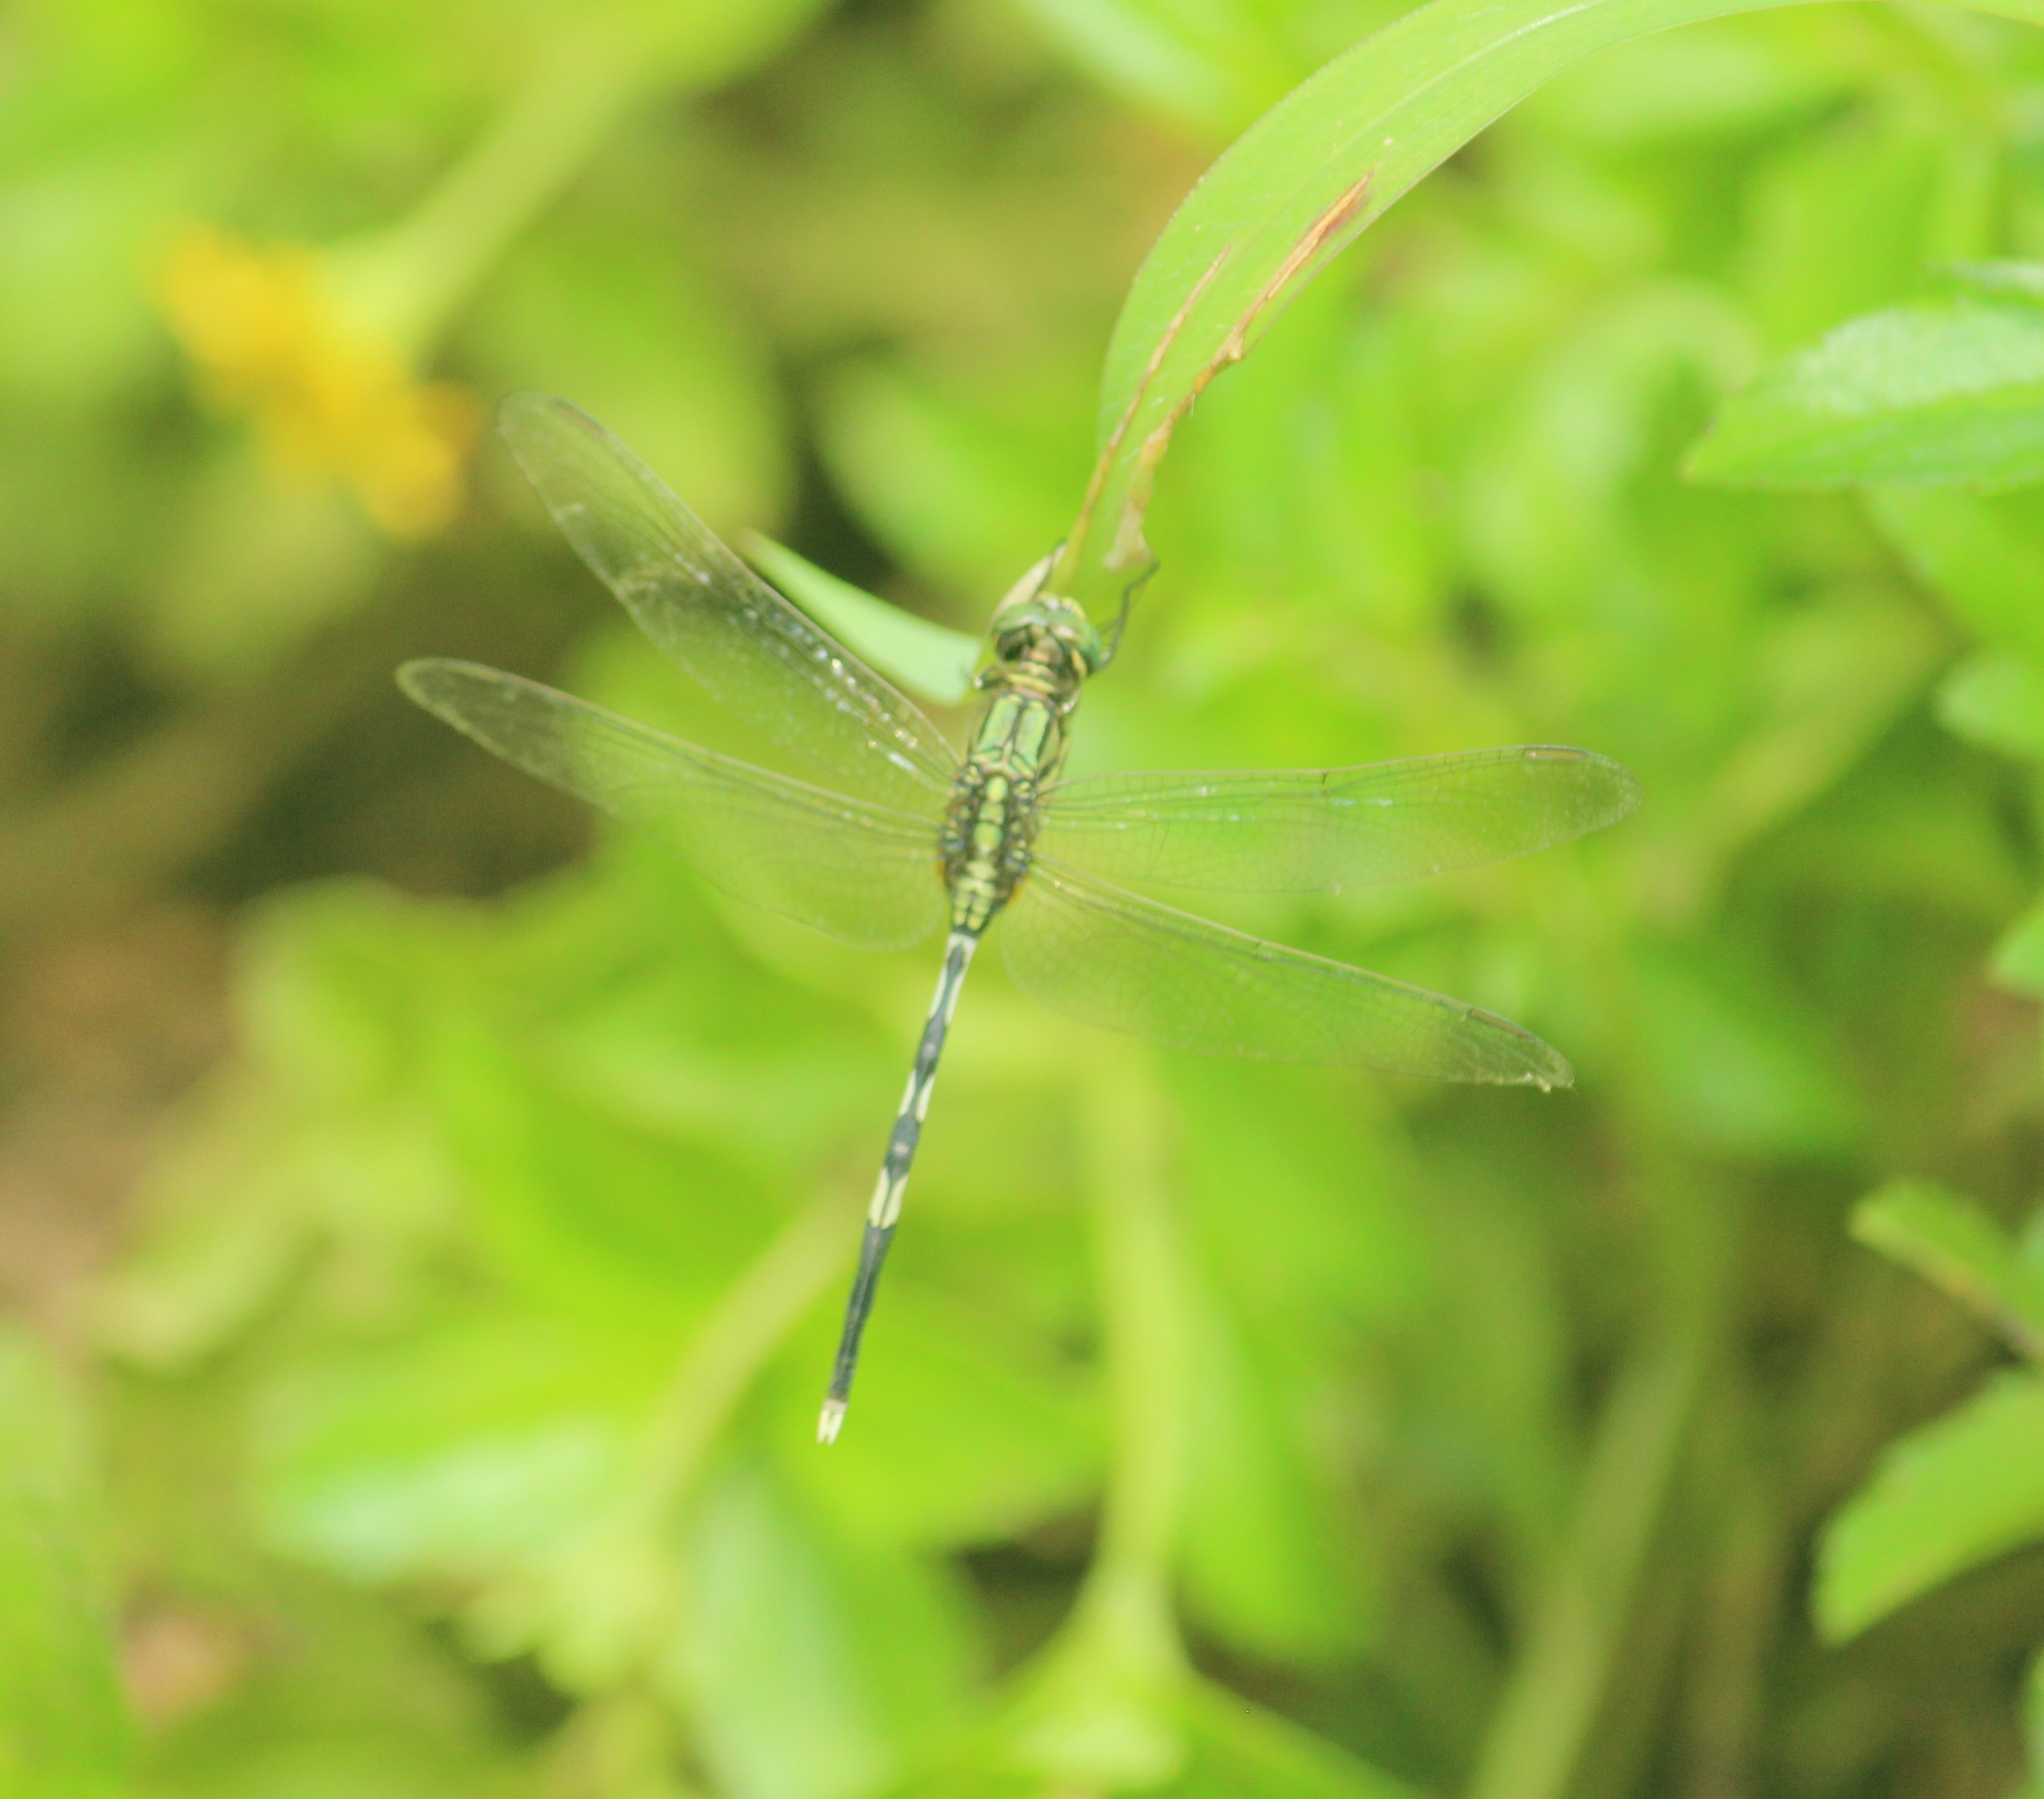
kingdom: Animalia
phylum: Arthropoda
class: Insecta
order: Odonata
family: Libellulidae
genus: Orthetrum
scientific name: Orthetrum sabina
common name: Slender skimmer
